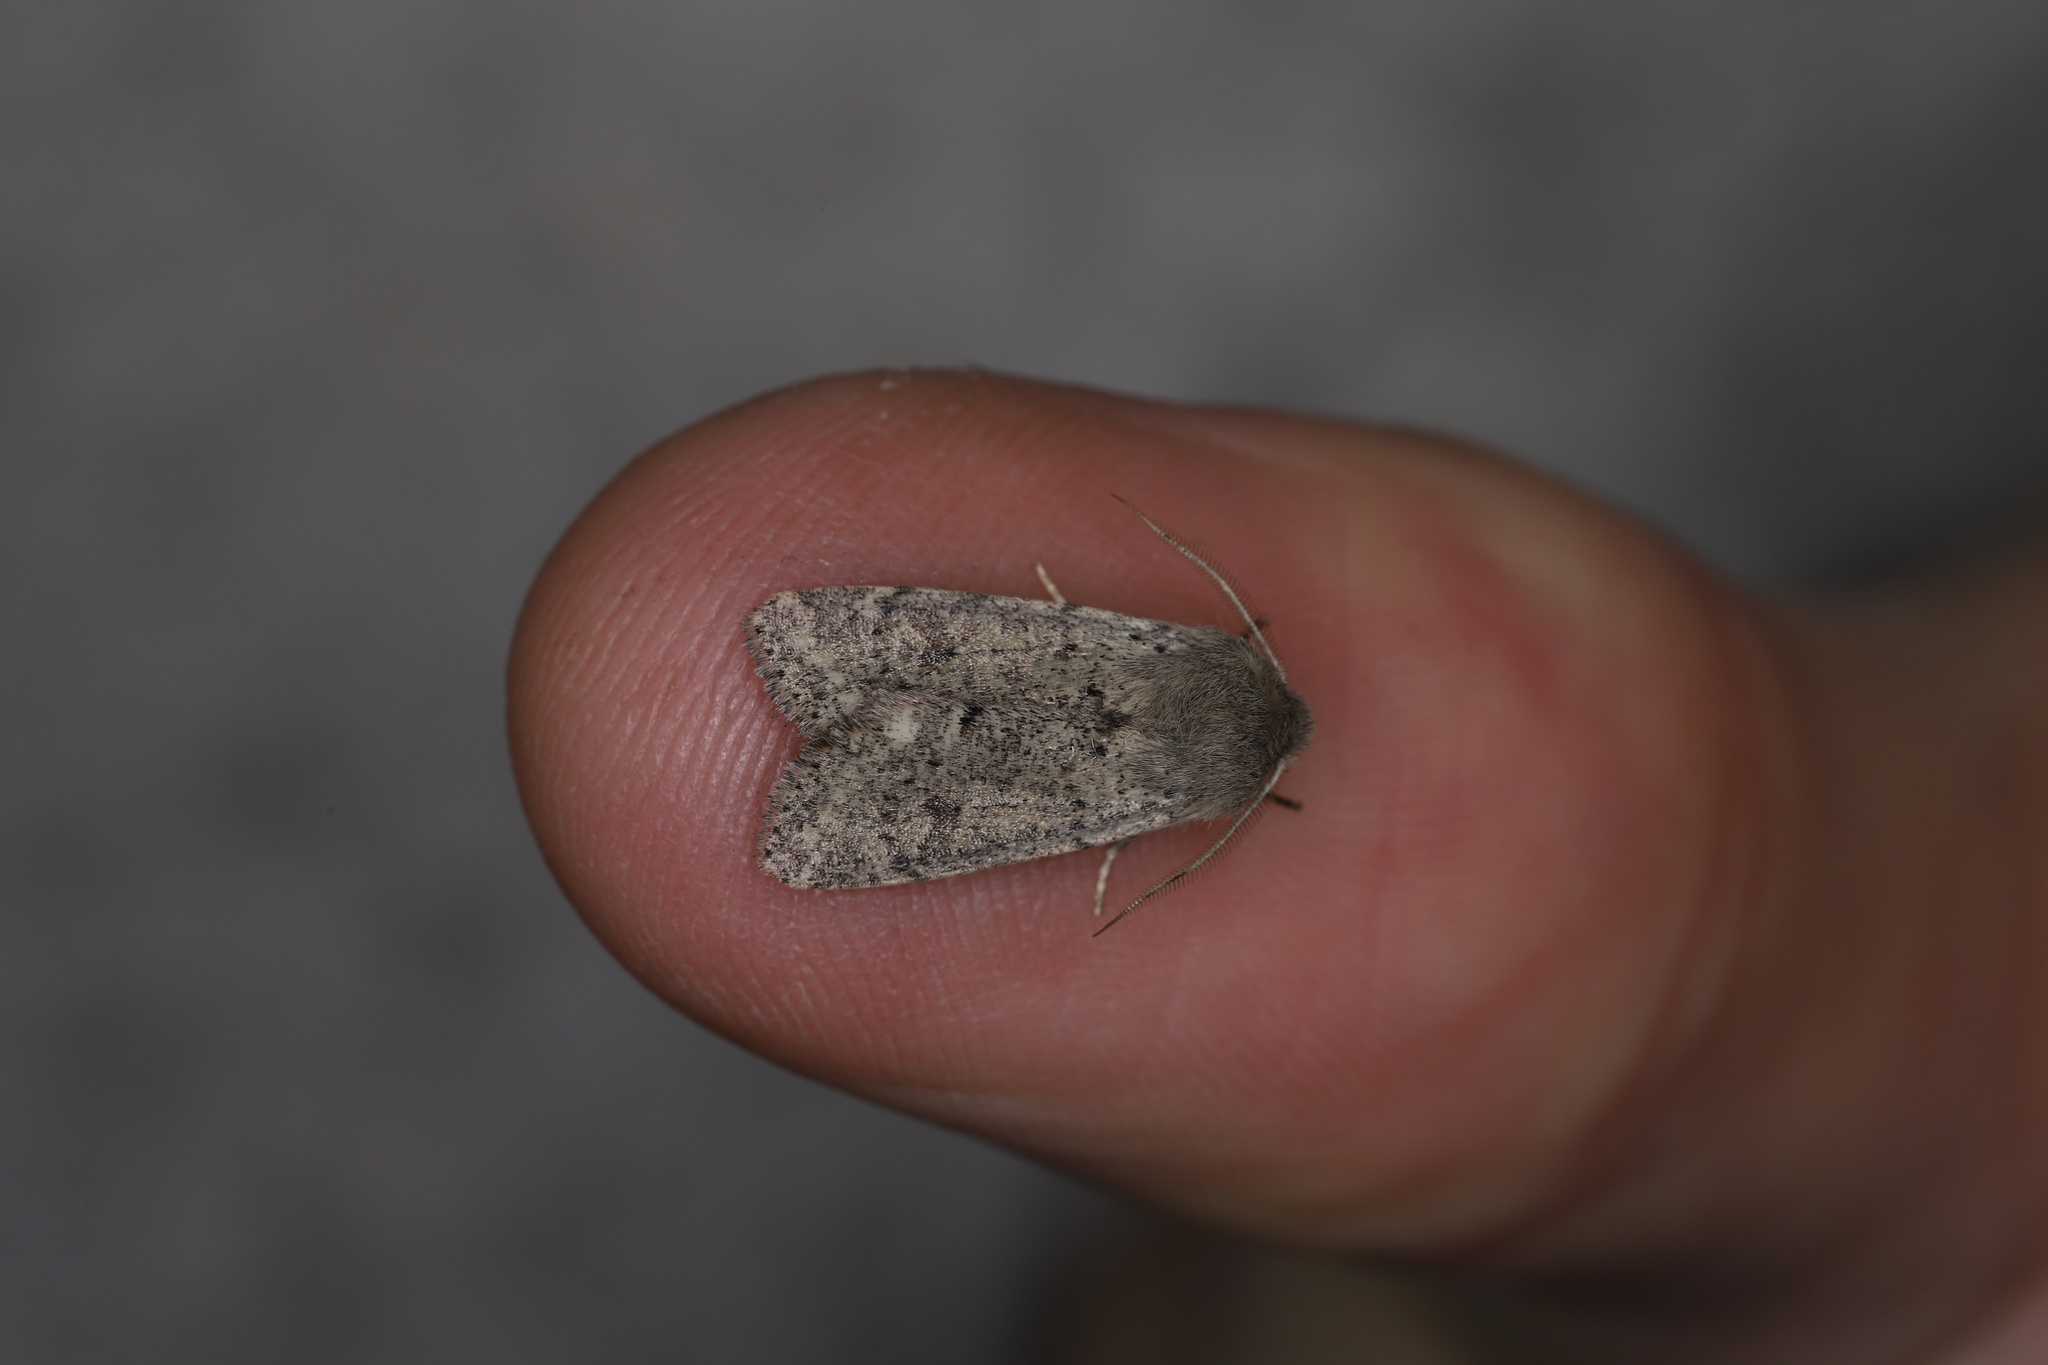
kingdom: Animalia
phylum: Arthropoda
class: Insecta
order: Lepidoptera
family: Noctuidae
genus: Orthosia
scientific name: Orthosia cruda
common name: Small quaker
